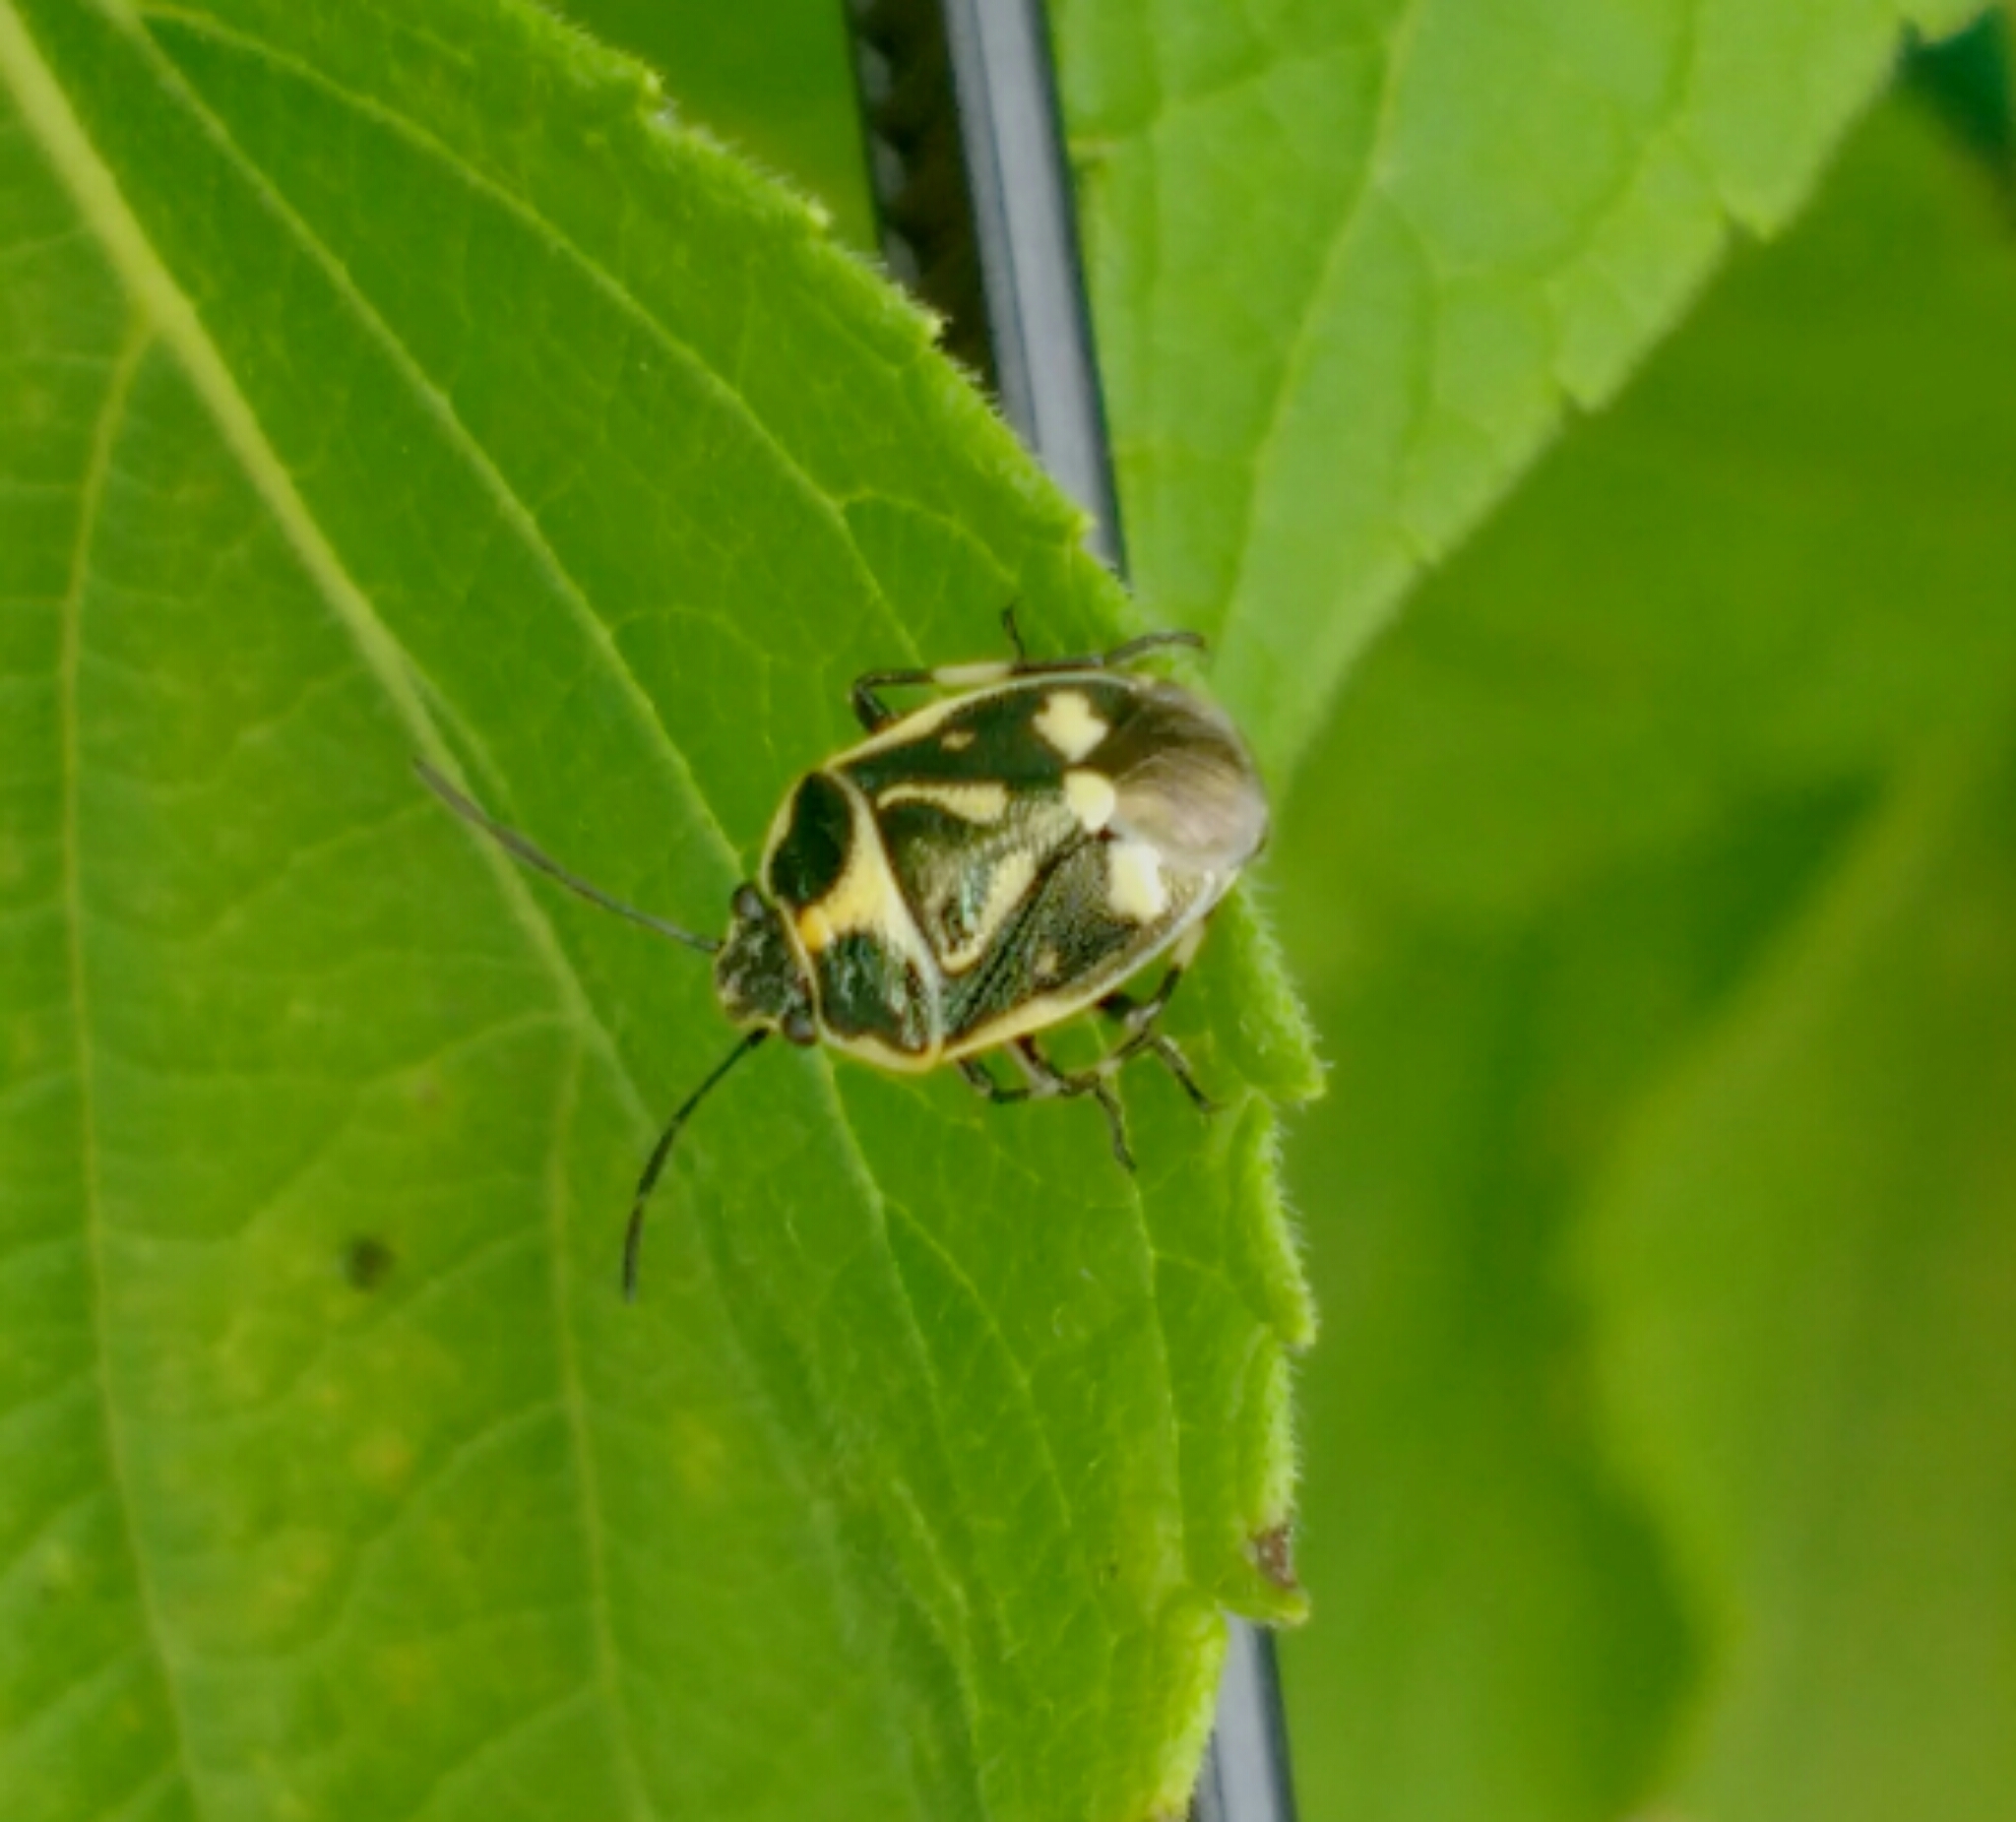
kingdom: Animalia
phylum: Arthropoda
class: Insecta
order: Hemiptera
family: Pentatomidae
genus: Eurydema
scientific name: Eurydema oleracea
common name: Cabbage bug
